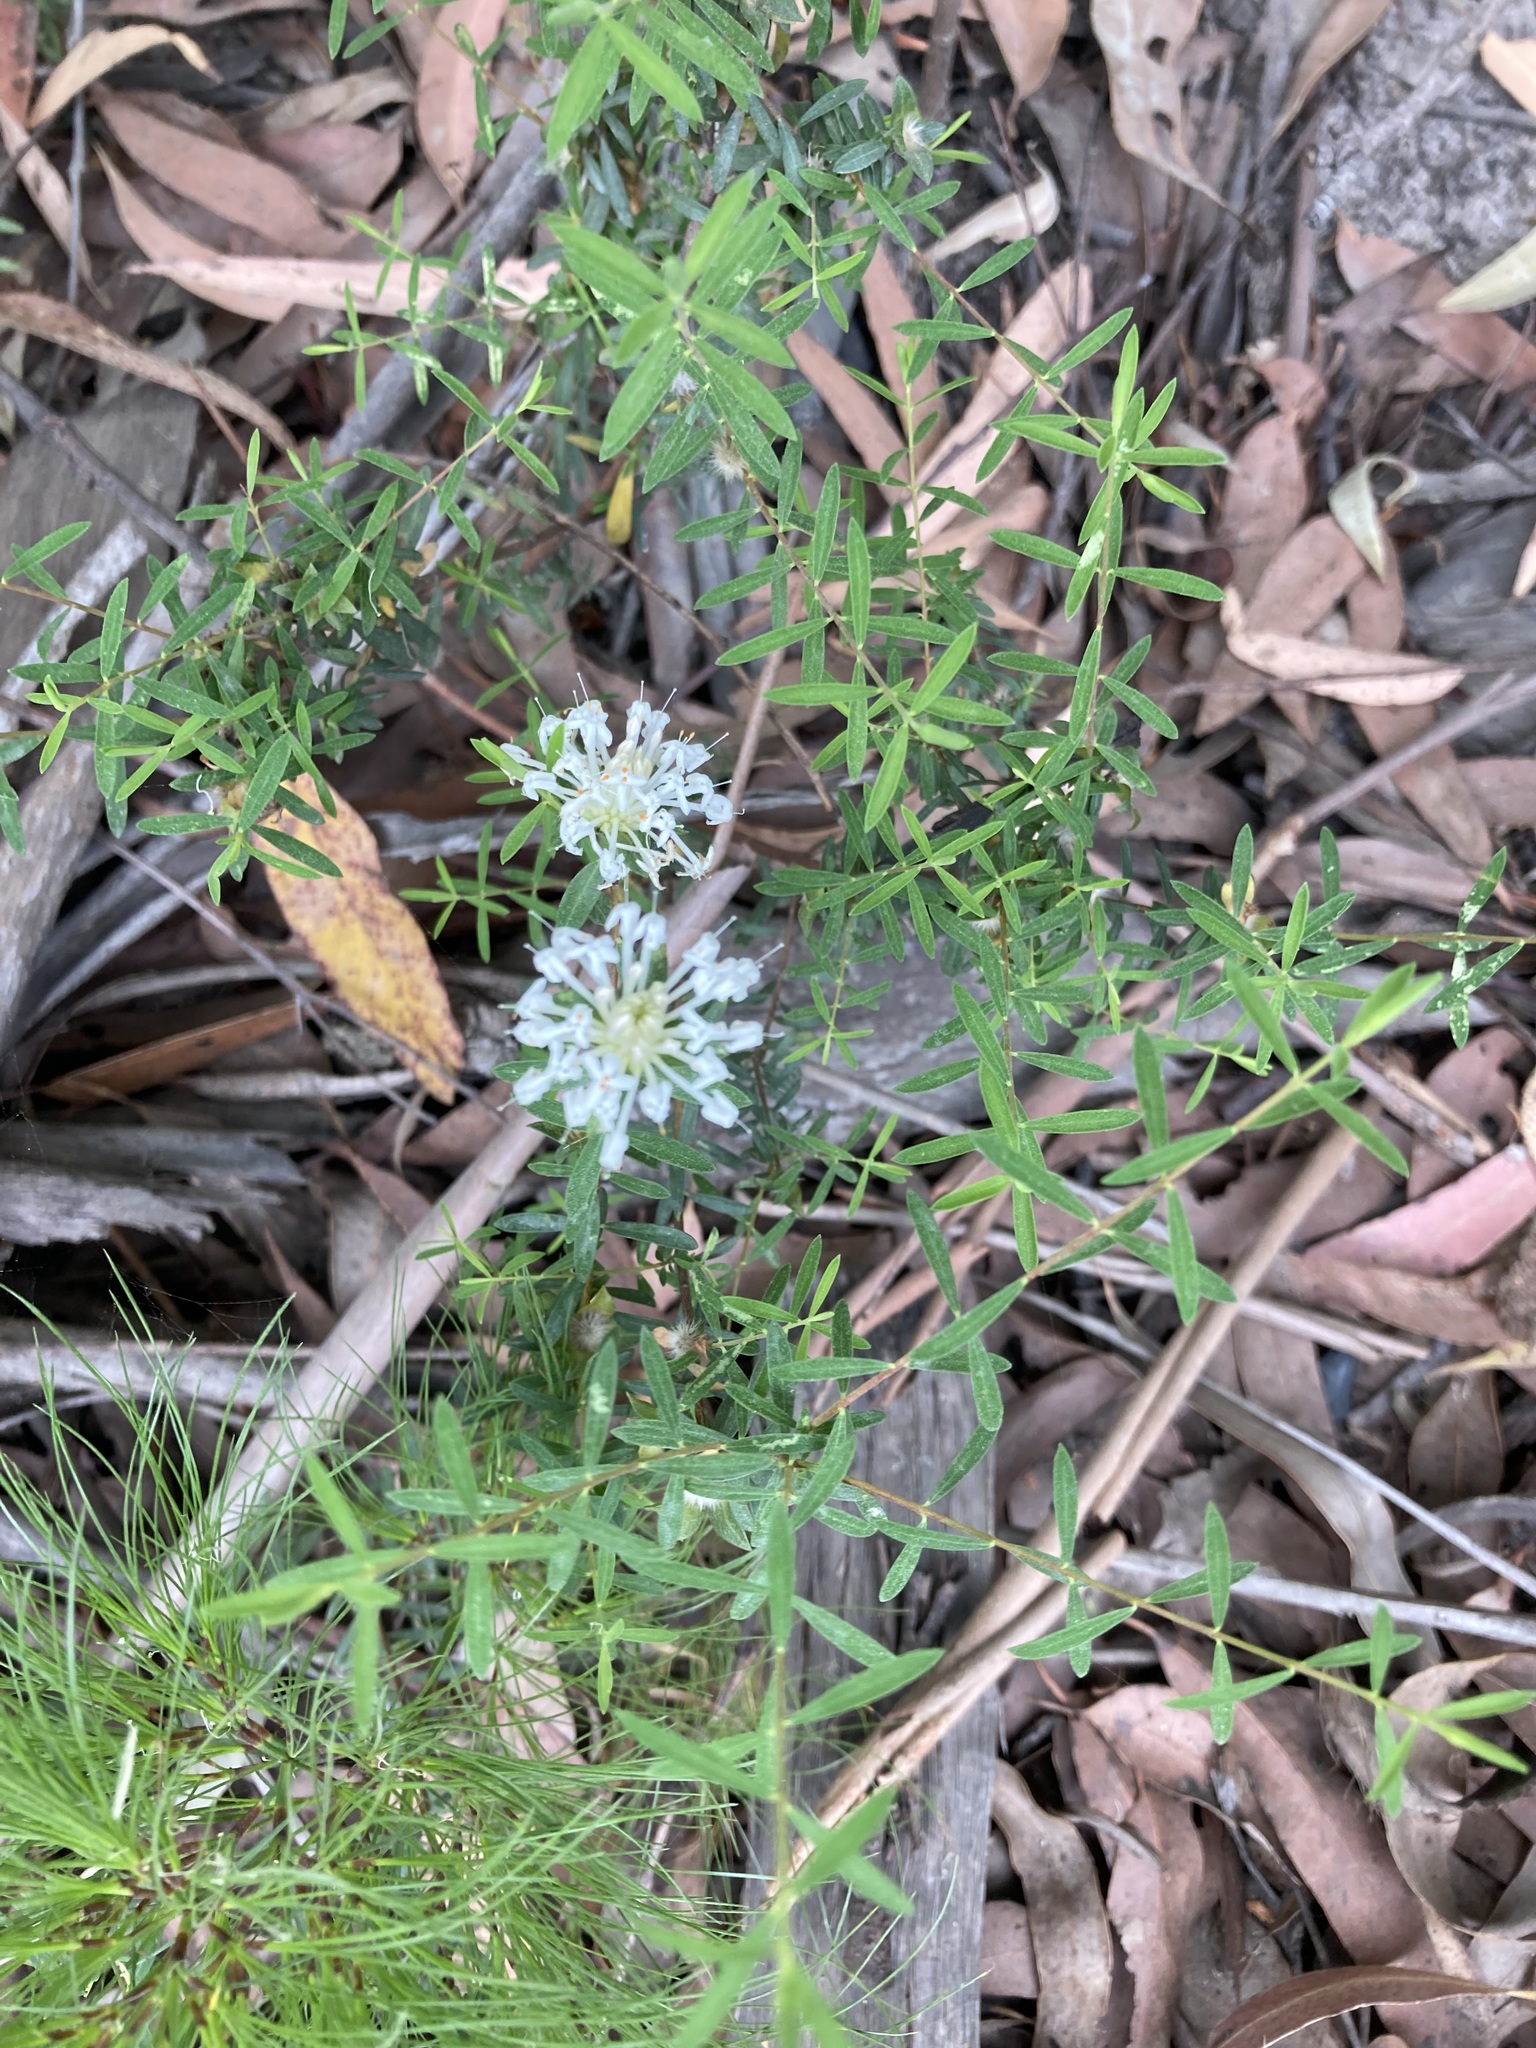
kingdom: Plantae
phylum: Tracheophyta
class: Magnoliopsida
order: Malvales
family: Thymelaeaceae
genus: Pimelea
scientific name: Pimelea linifolia
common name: Queen-of-the-bush
